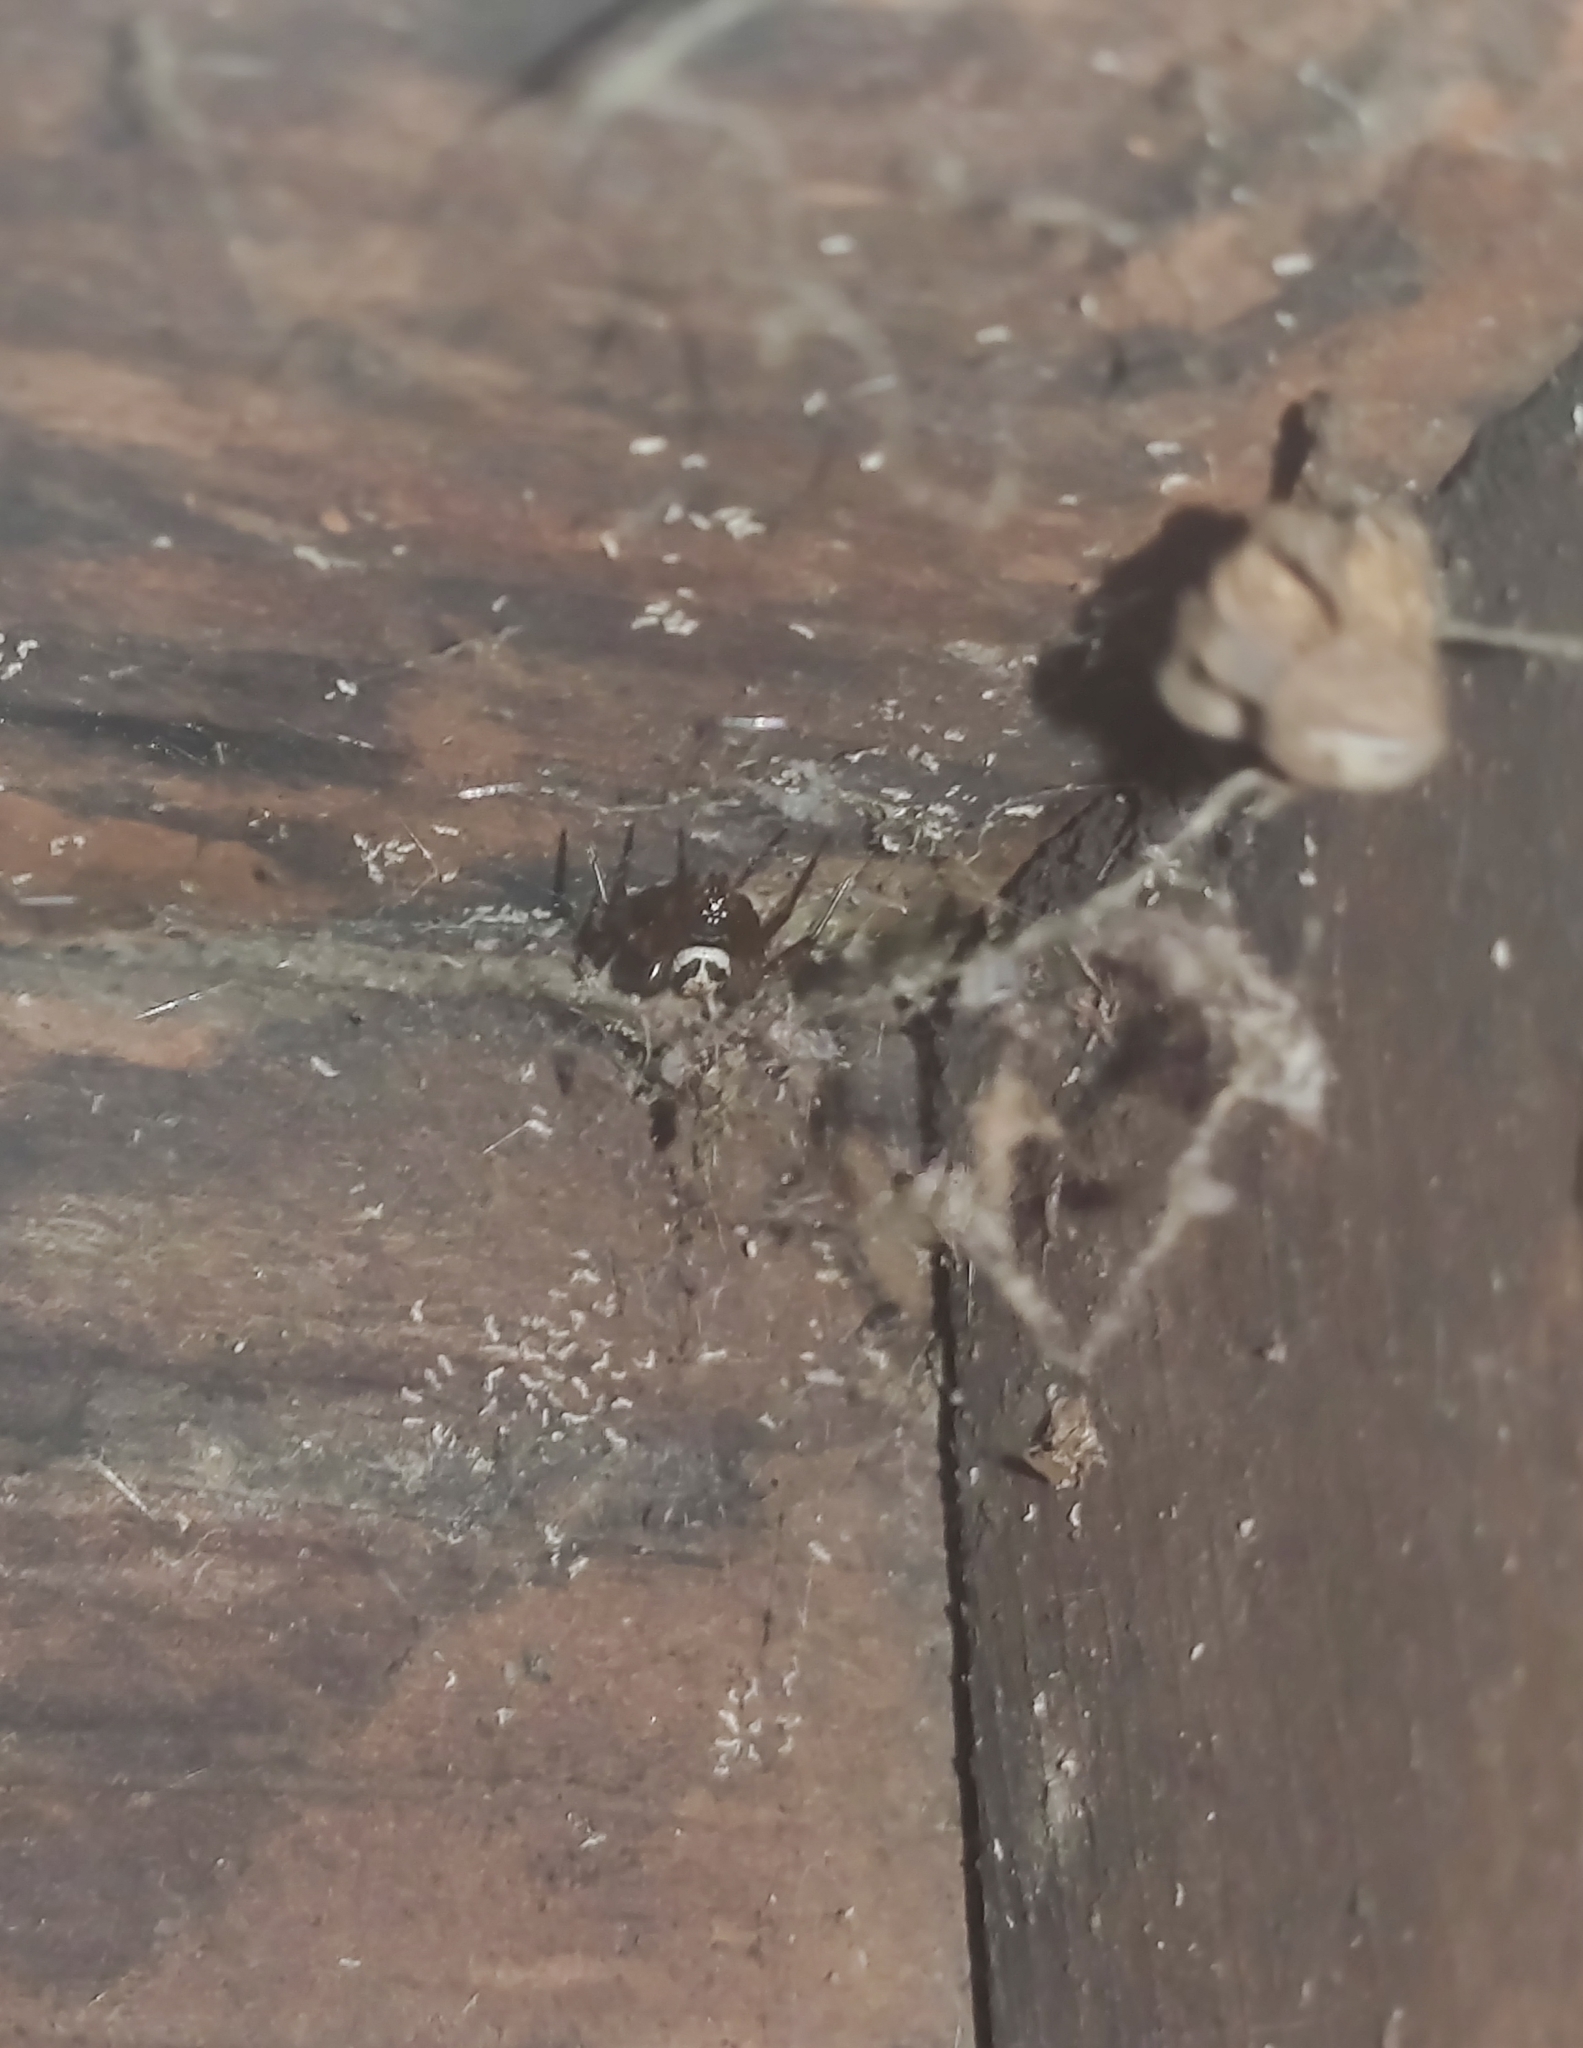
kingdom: Animalia
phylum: Arthropoda
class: Arachnida
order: Araneae
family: Theridiidae
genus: Steatoda
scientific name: Steatoda nobilis
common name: Cobweb weaver
